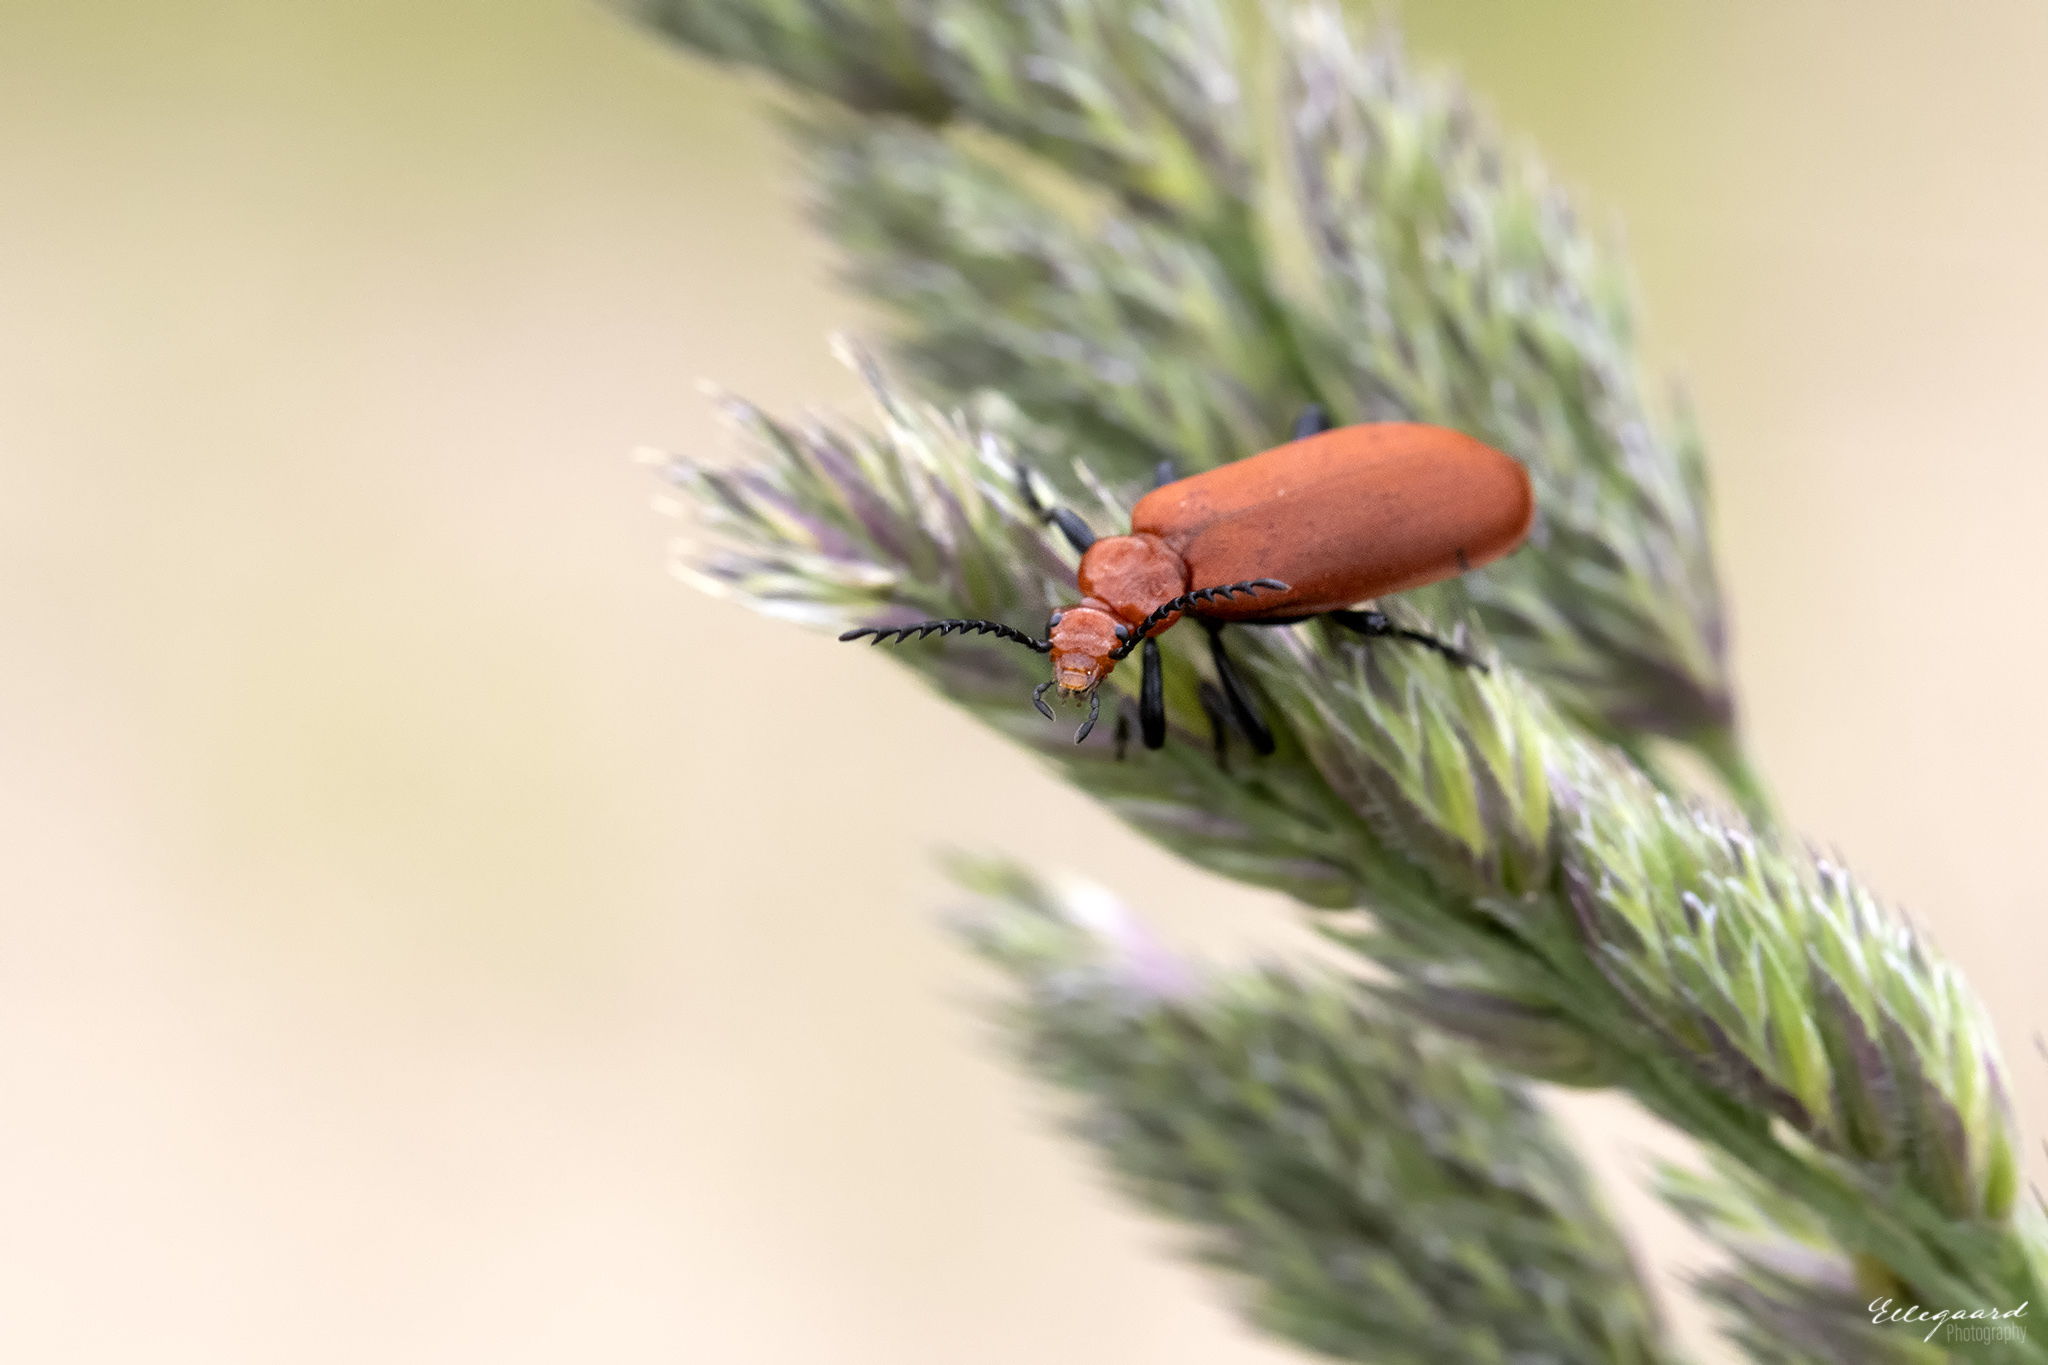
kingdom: Animalia
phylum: Arthropoda
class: Insecta
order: Coleoptera
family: Pyrochroidae
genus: Pyrochroa
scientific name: Pyrochroa serraticornis
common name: Red-headed cardinal beetle
